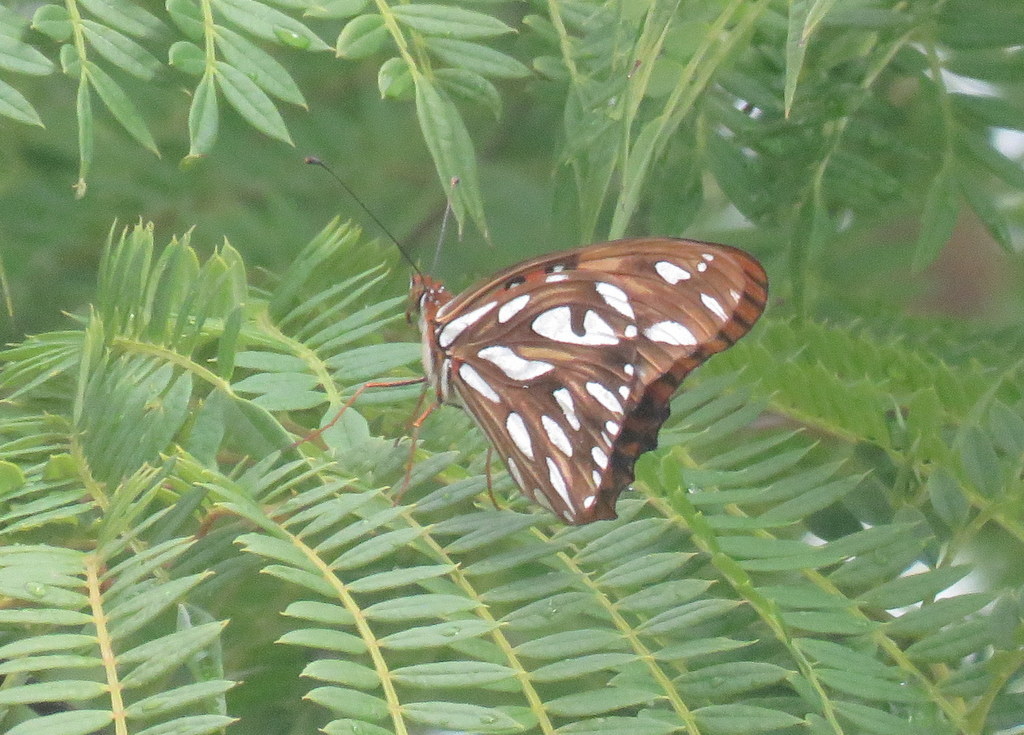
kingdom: Animalia
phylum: Arthropoda
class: Insecta
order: Lepidoptera
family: Nymphalidae
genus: Dione
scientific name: Dione vanillae
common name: Gulf fritillary
